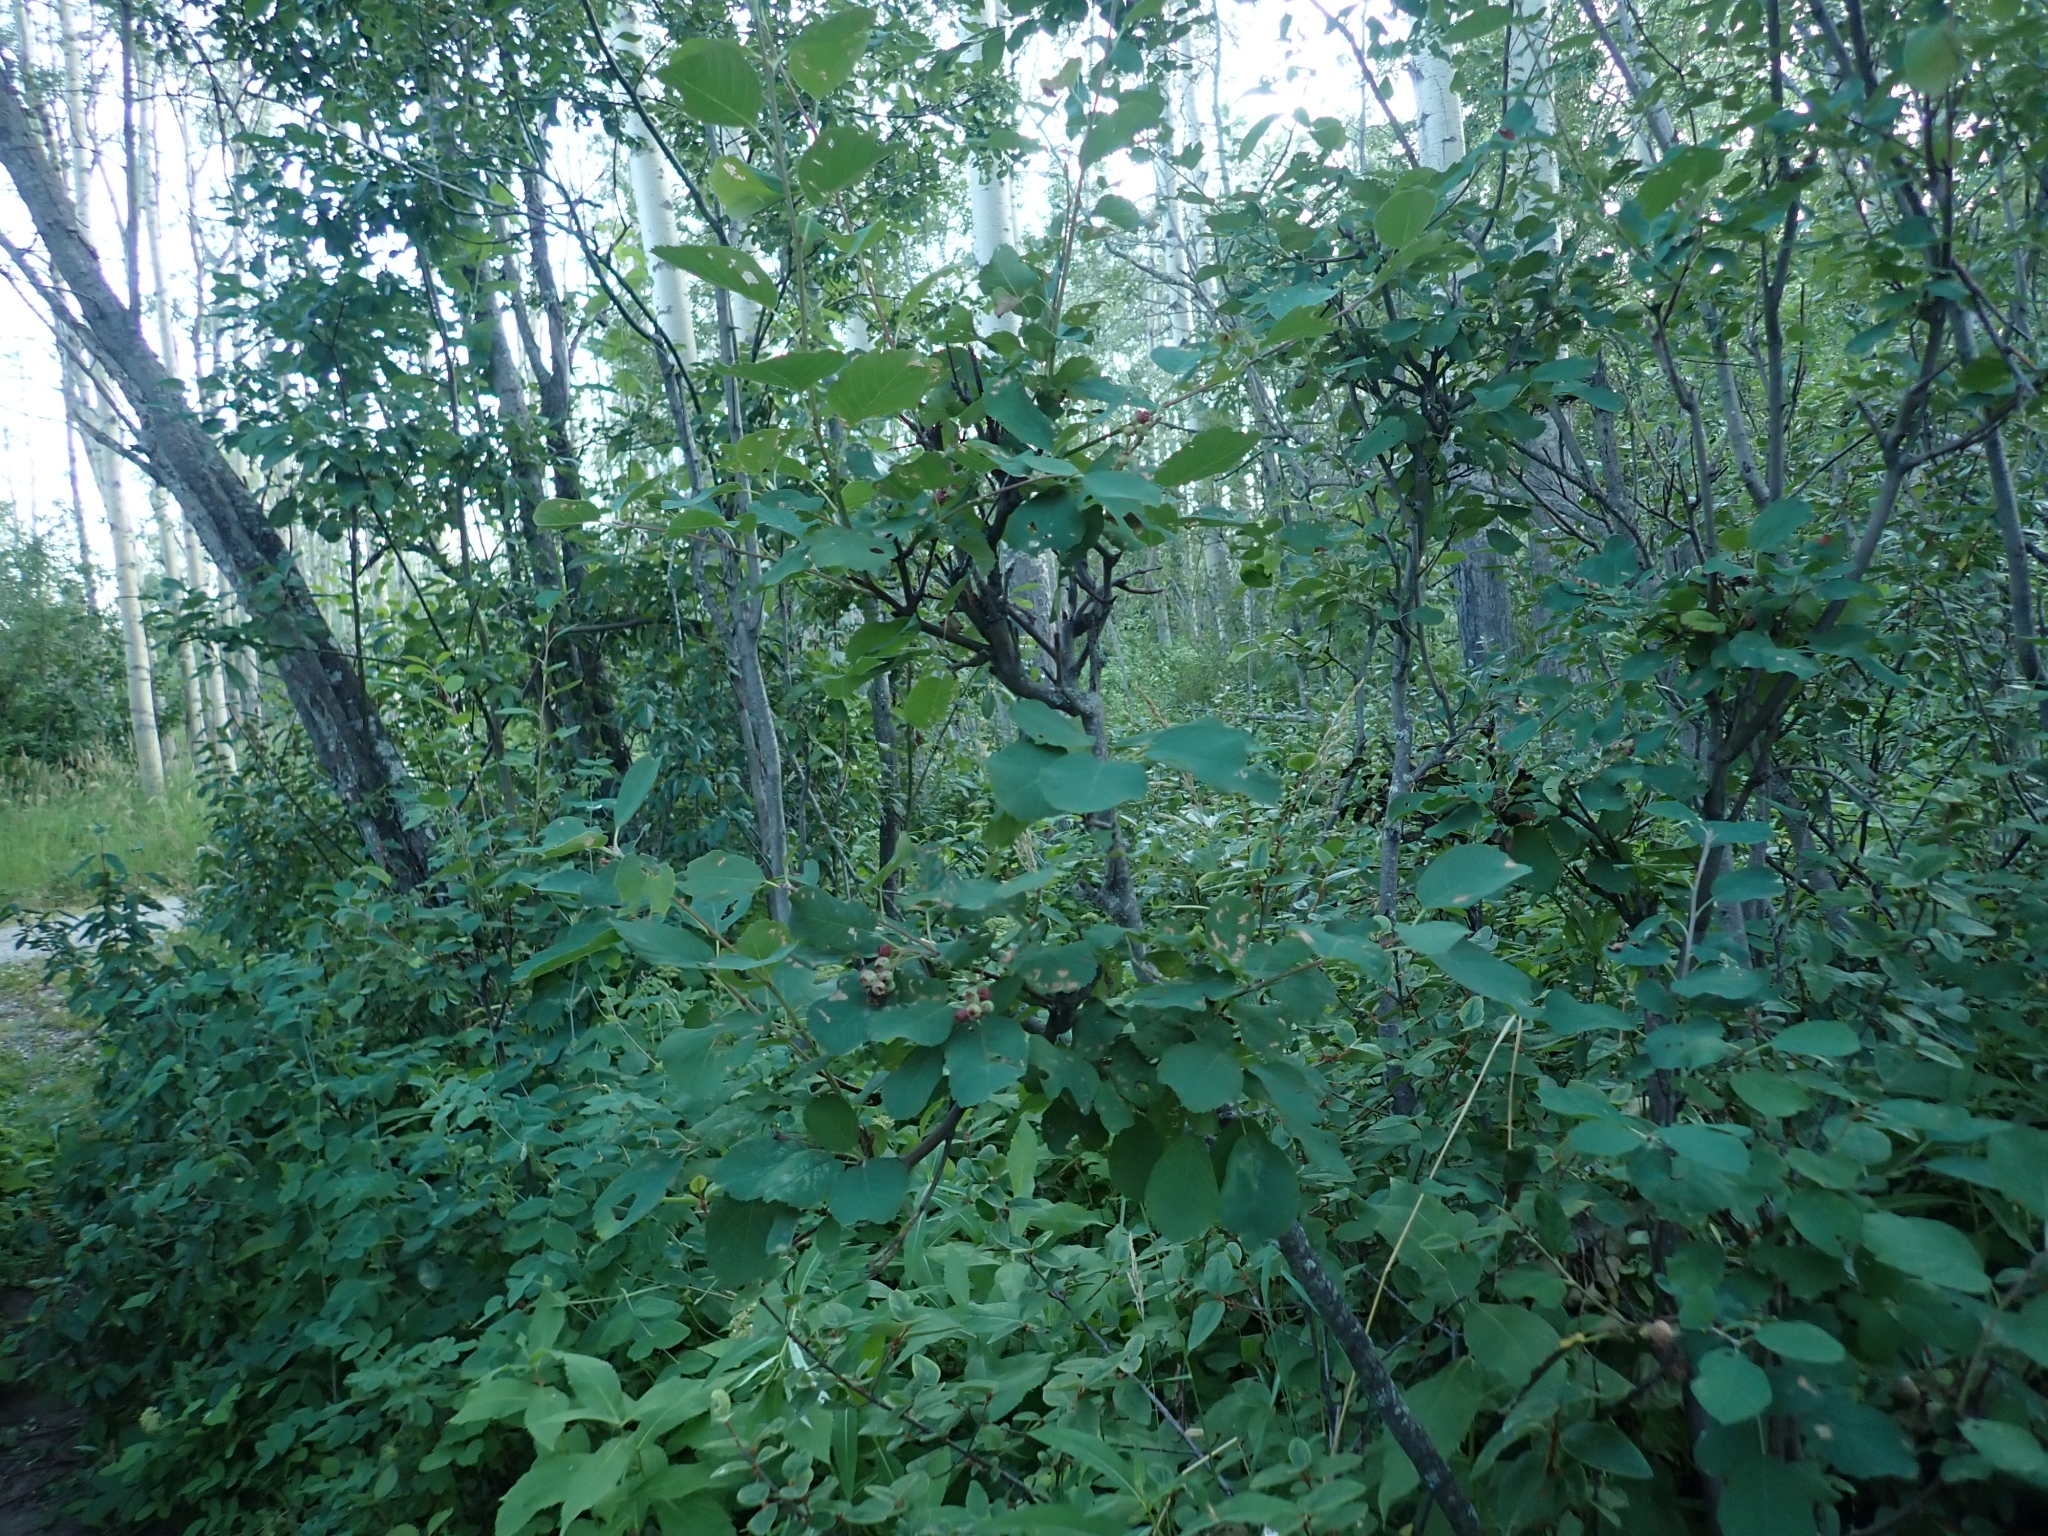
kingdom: Plantae
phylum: Tracheophyta
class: Magnoliopsida
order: Rosales
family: Rosaceae
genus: Amelanchier
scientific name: Amelanchier alnifolia
